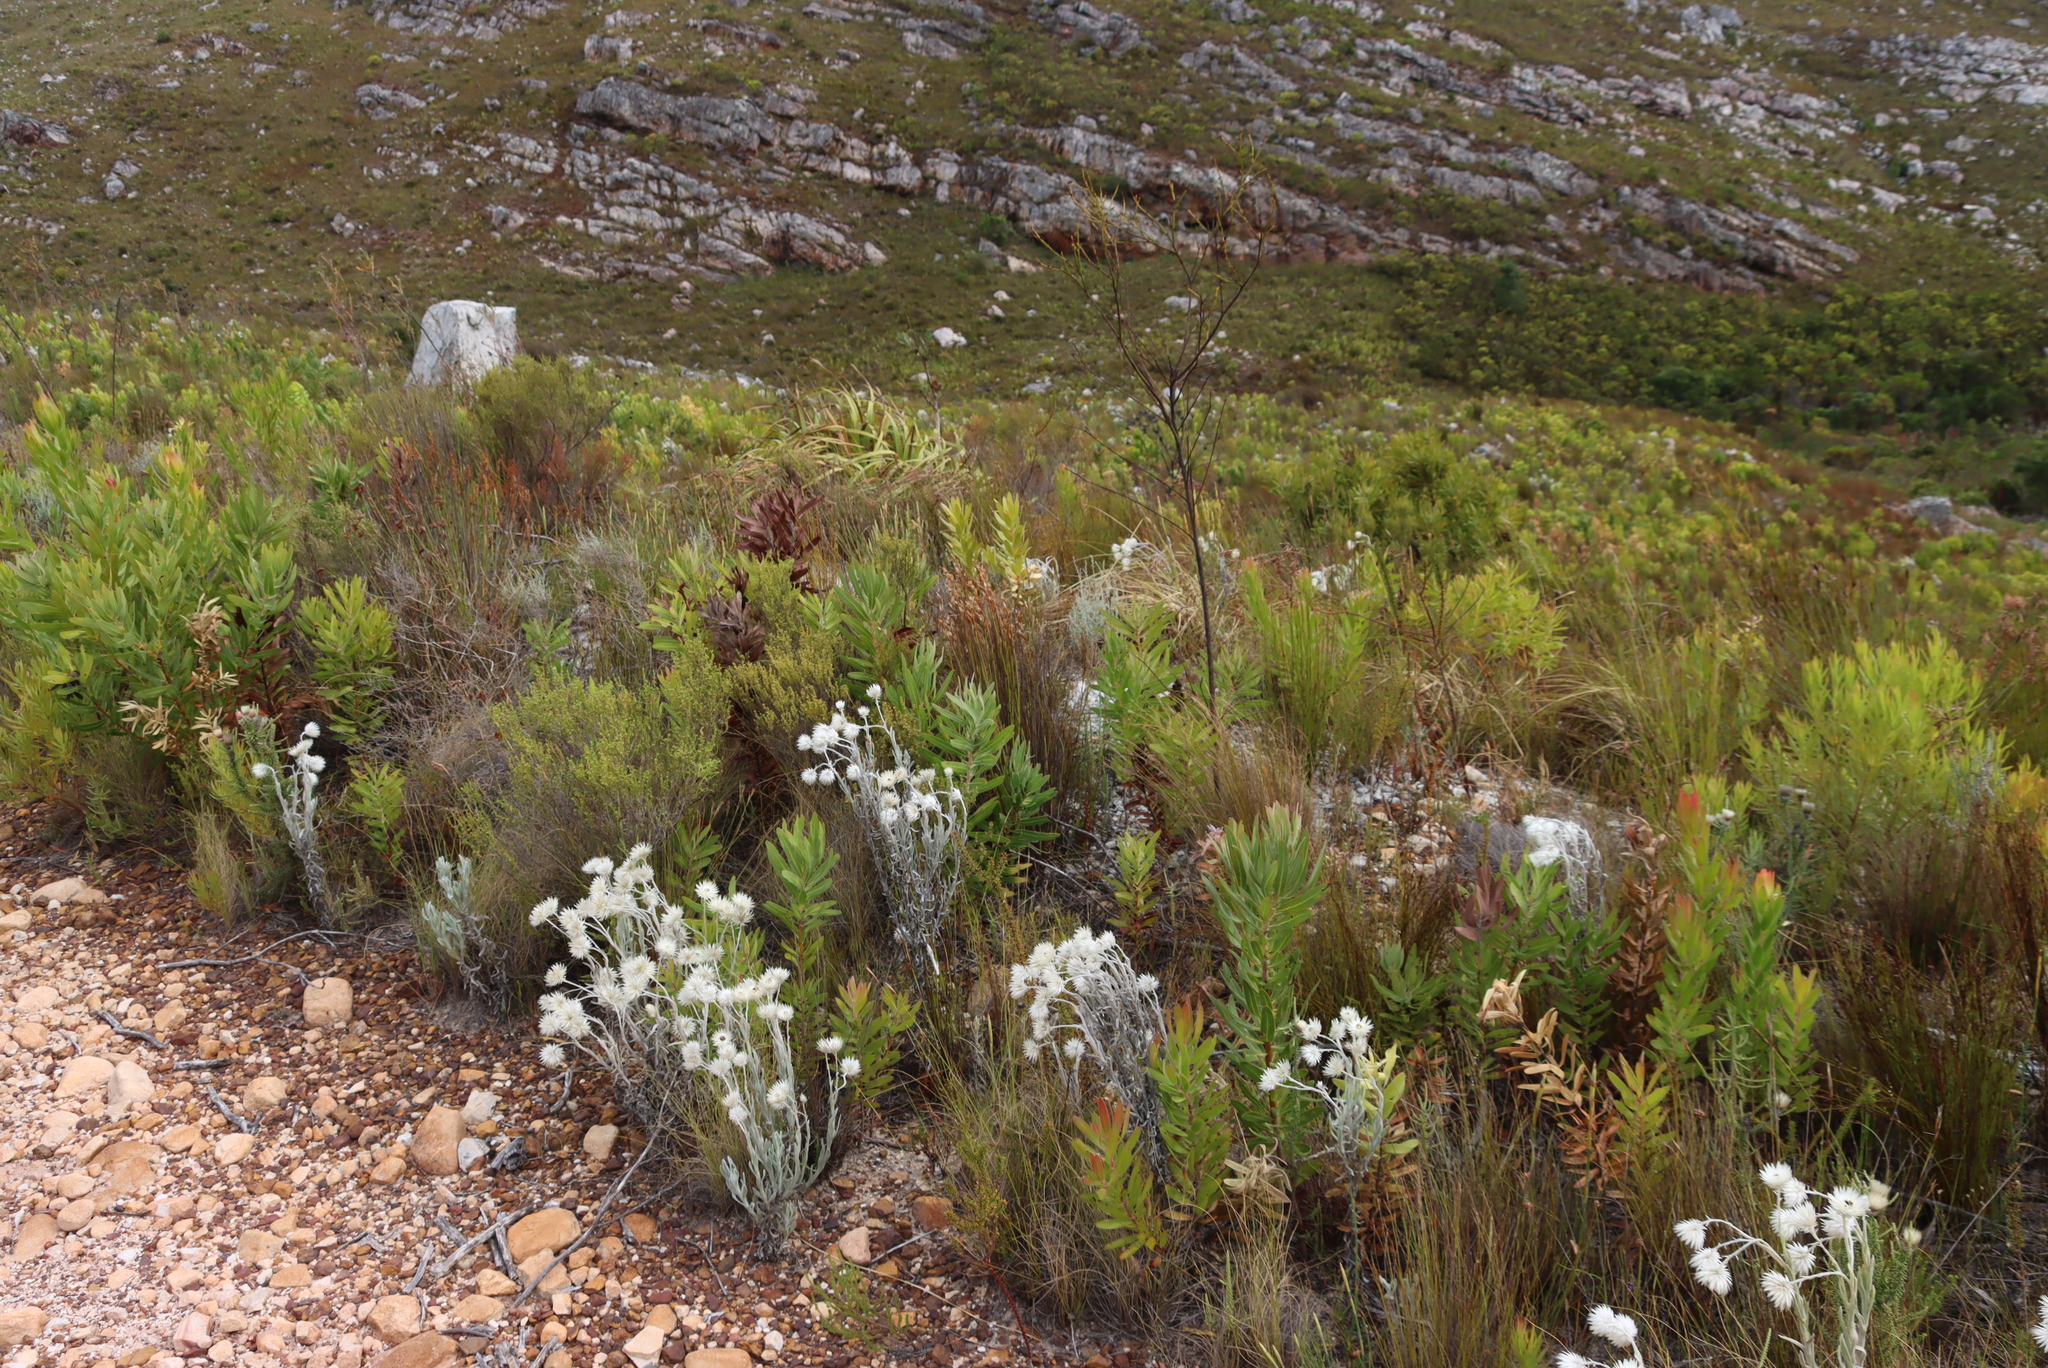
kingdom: Plantae
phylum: Tracheophyta
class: Magnoliopsida
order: Asterales
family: Asteraceae
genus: Syncarpha
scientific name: Syncarpha vestita
